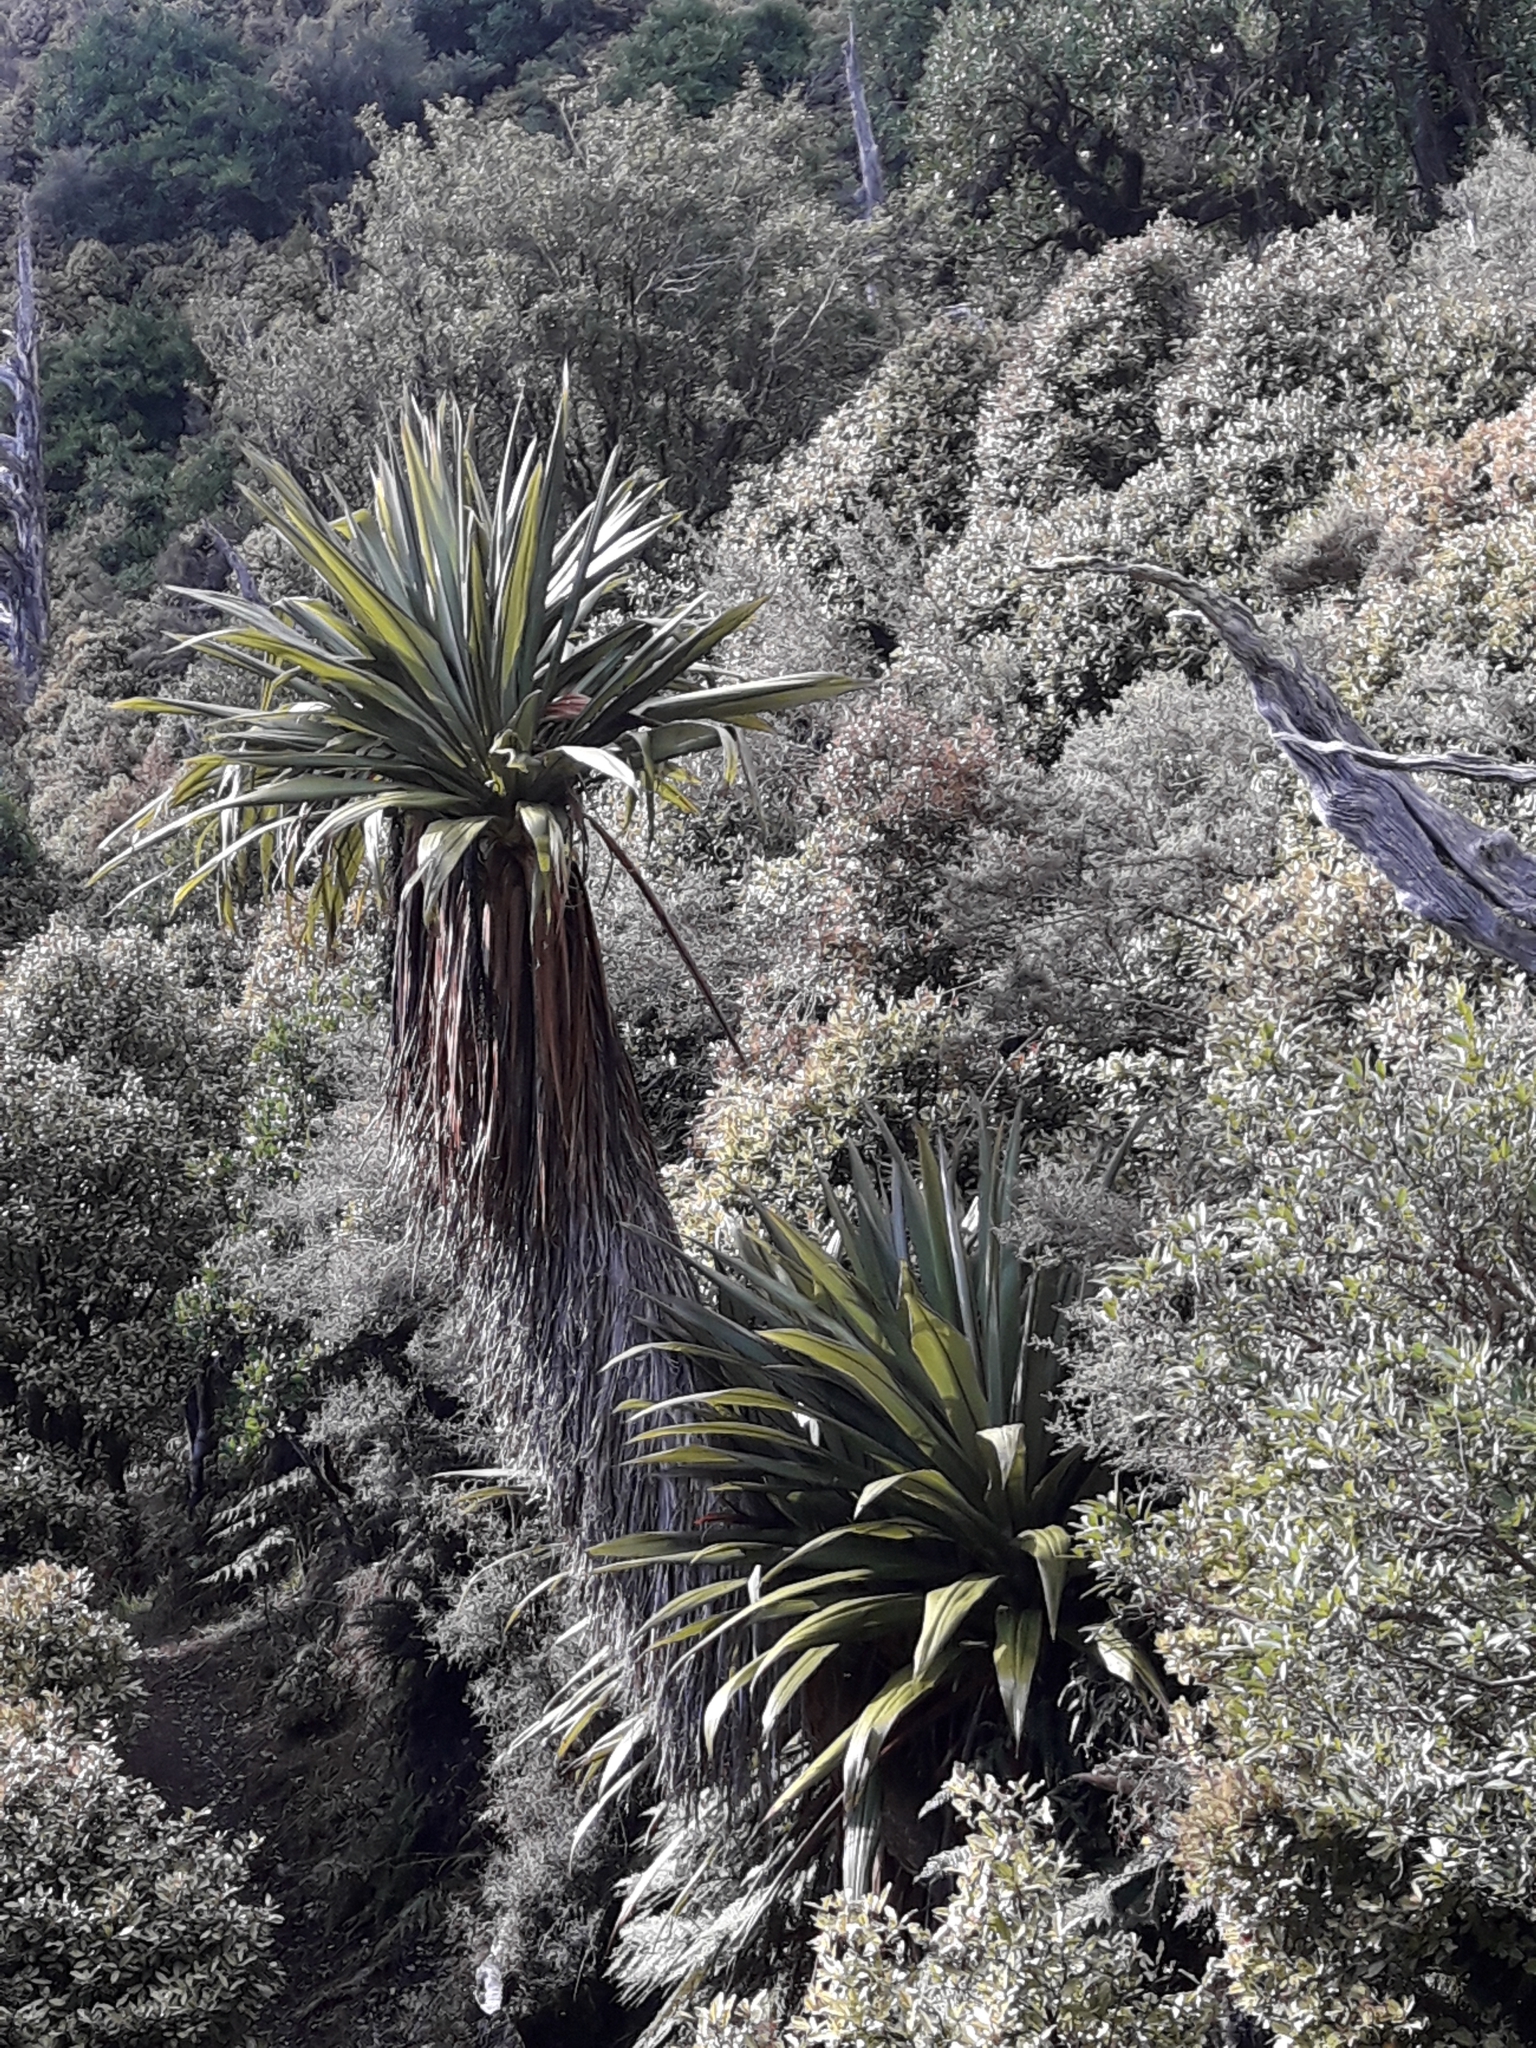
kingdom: Plantae
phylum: Tracheophyta
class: Liliopsida
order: Asparagales
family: Asparagaceae
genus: Cordyline
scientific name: Cordyline indivisa
